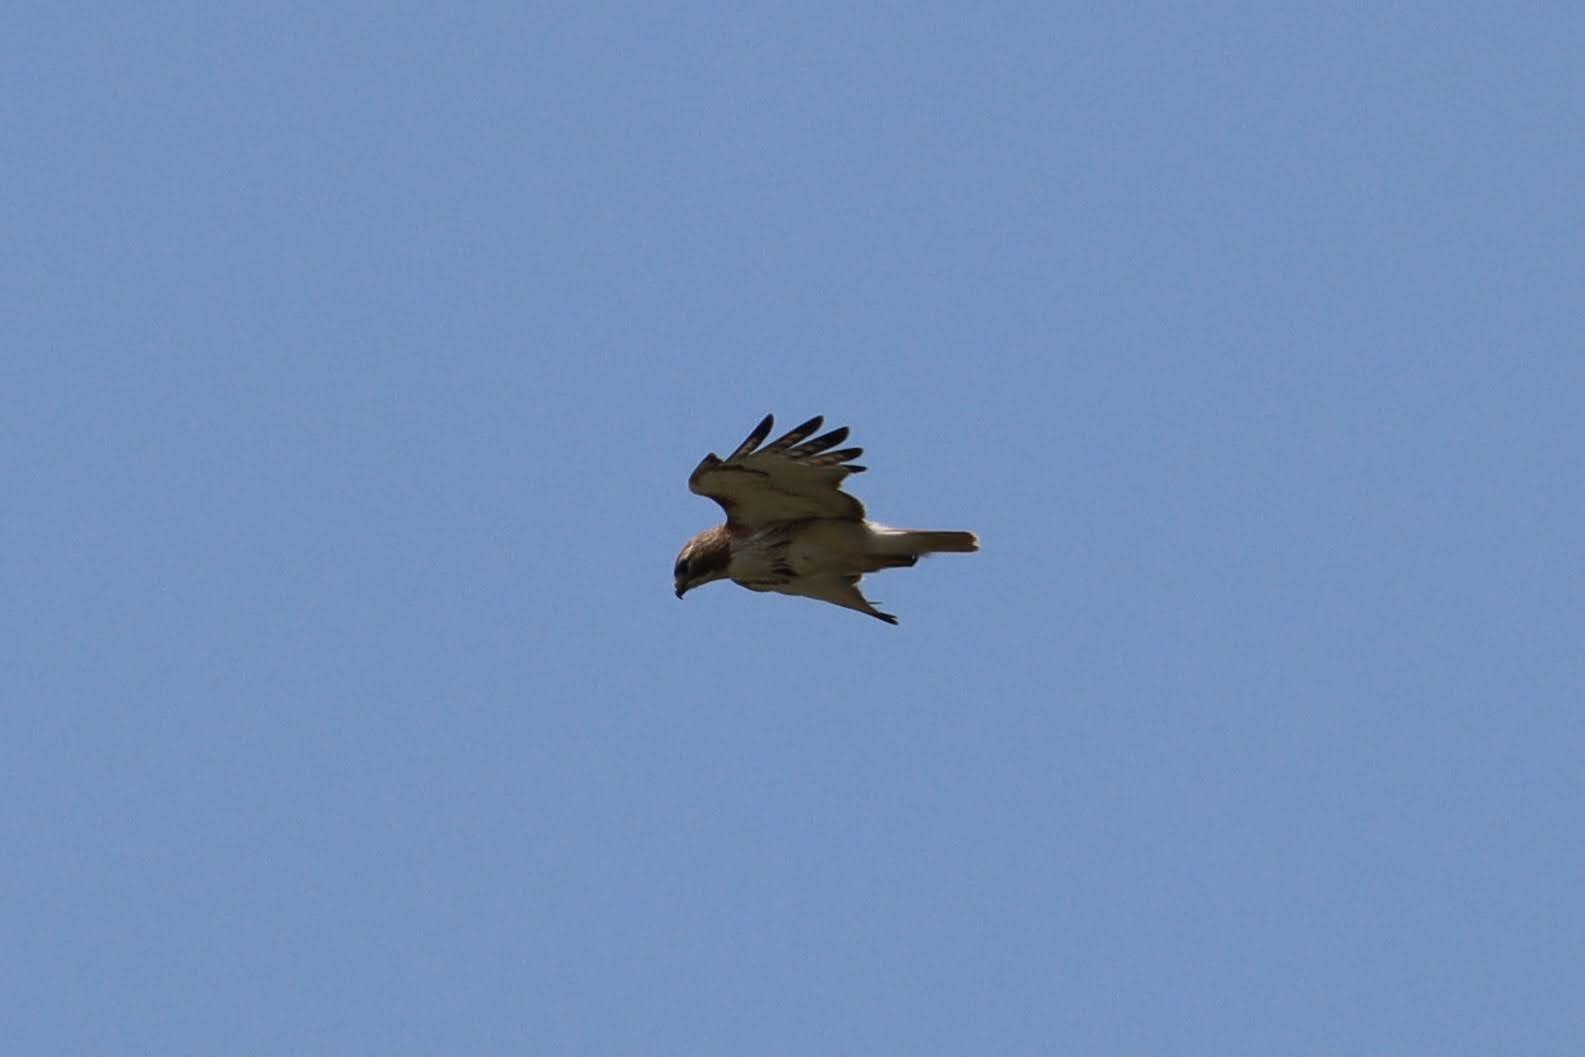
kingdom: Animalia
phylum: Chordata
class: Aves
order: Accipitriformes
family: Accipitridae
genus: Buteo
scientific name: Buteo jamaicensis
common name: Red-tailed hawk
